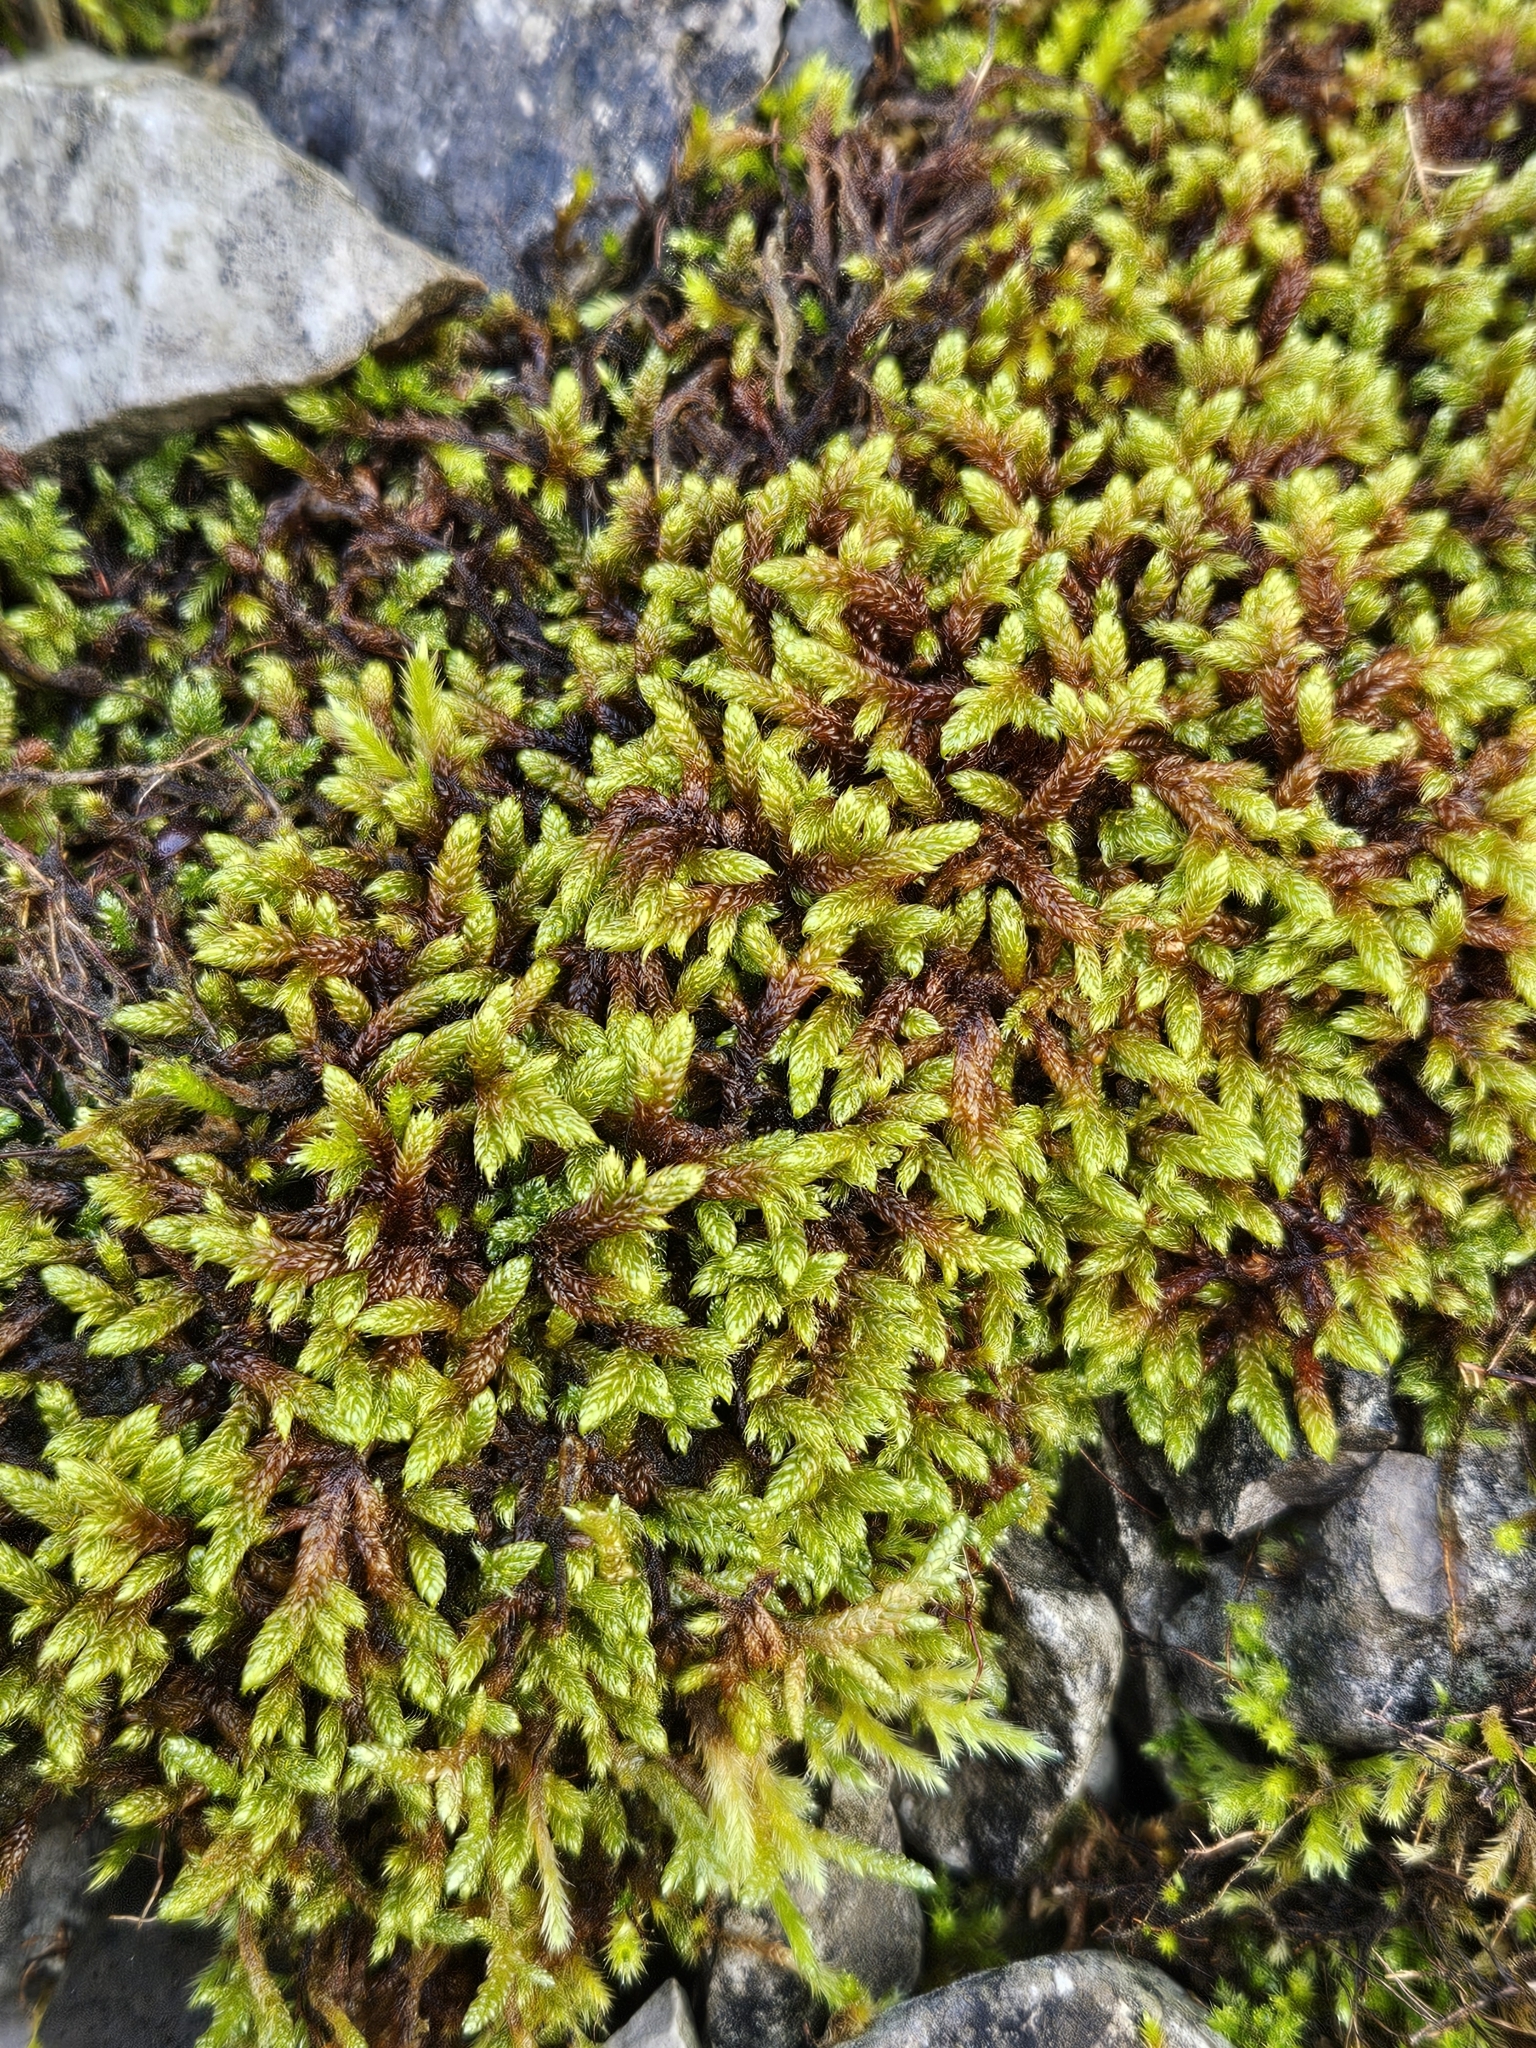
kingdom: Plantae
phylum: Bryophyta
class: Bryopsida
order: Hypnales
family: Hypnaceae
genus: Hypnum
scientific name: Hypnum cupressiforme
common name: Cypress-leaved plait-moss
